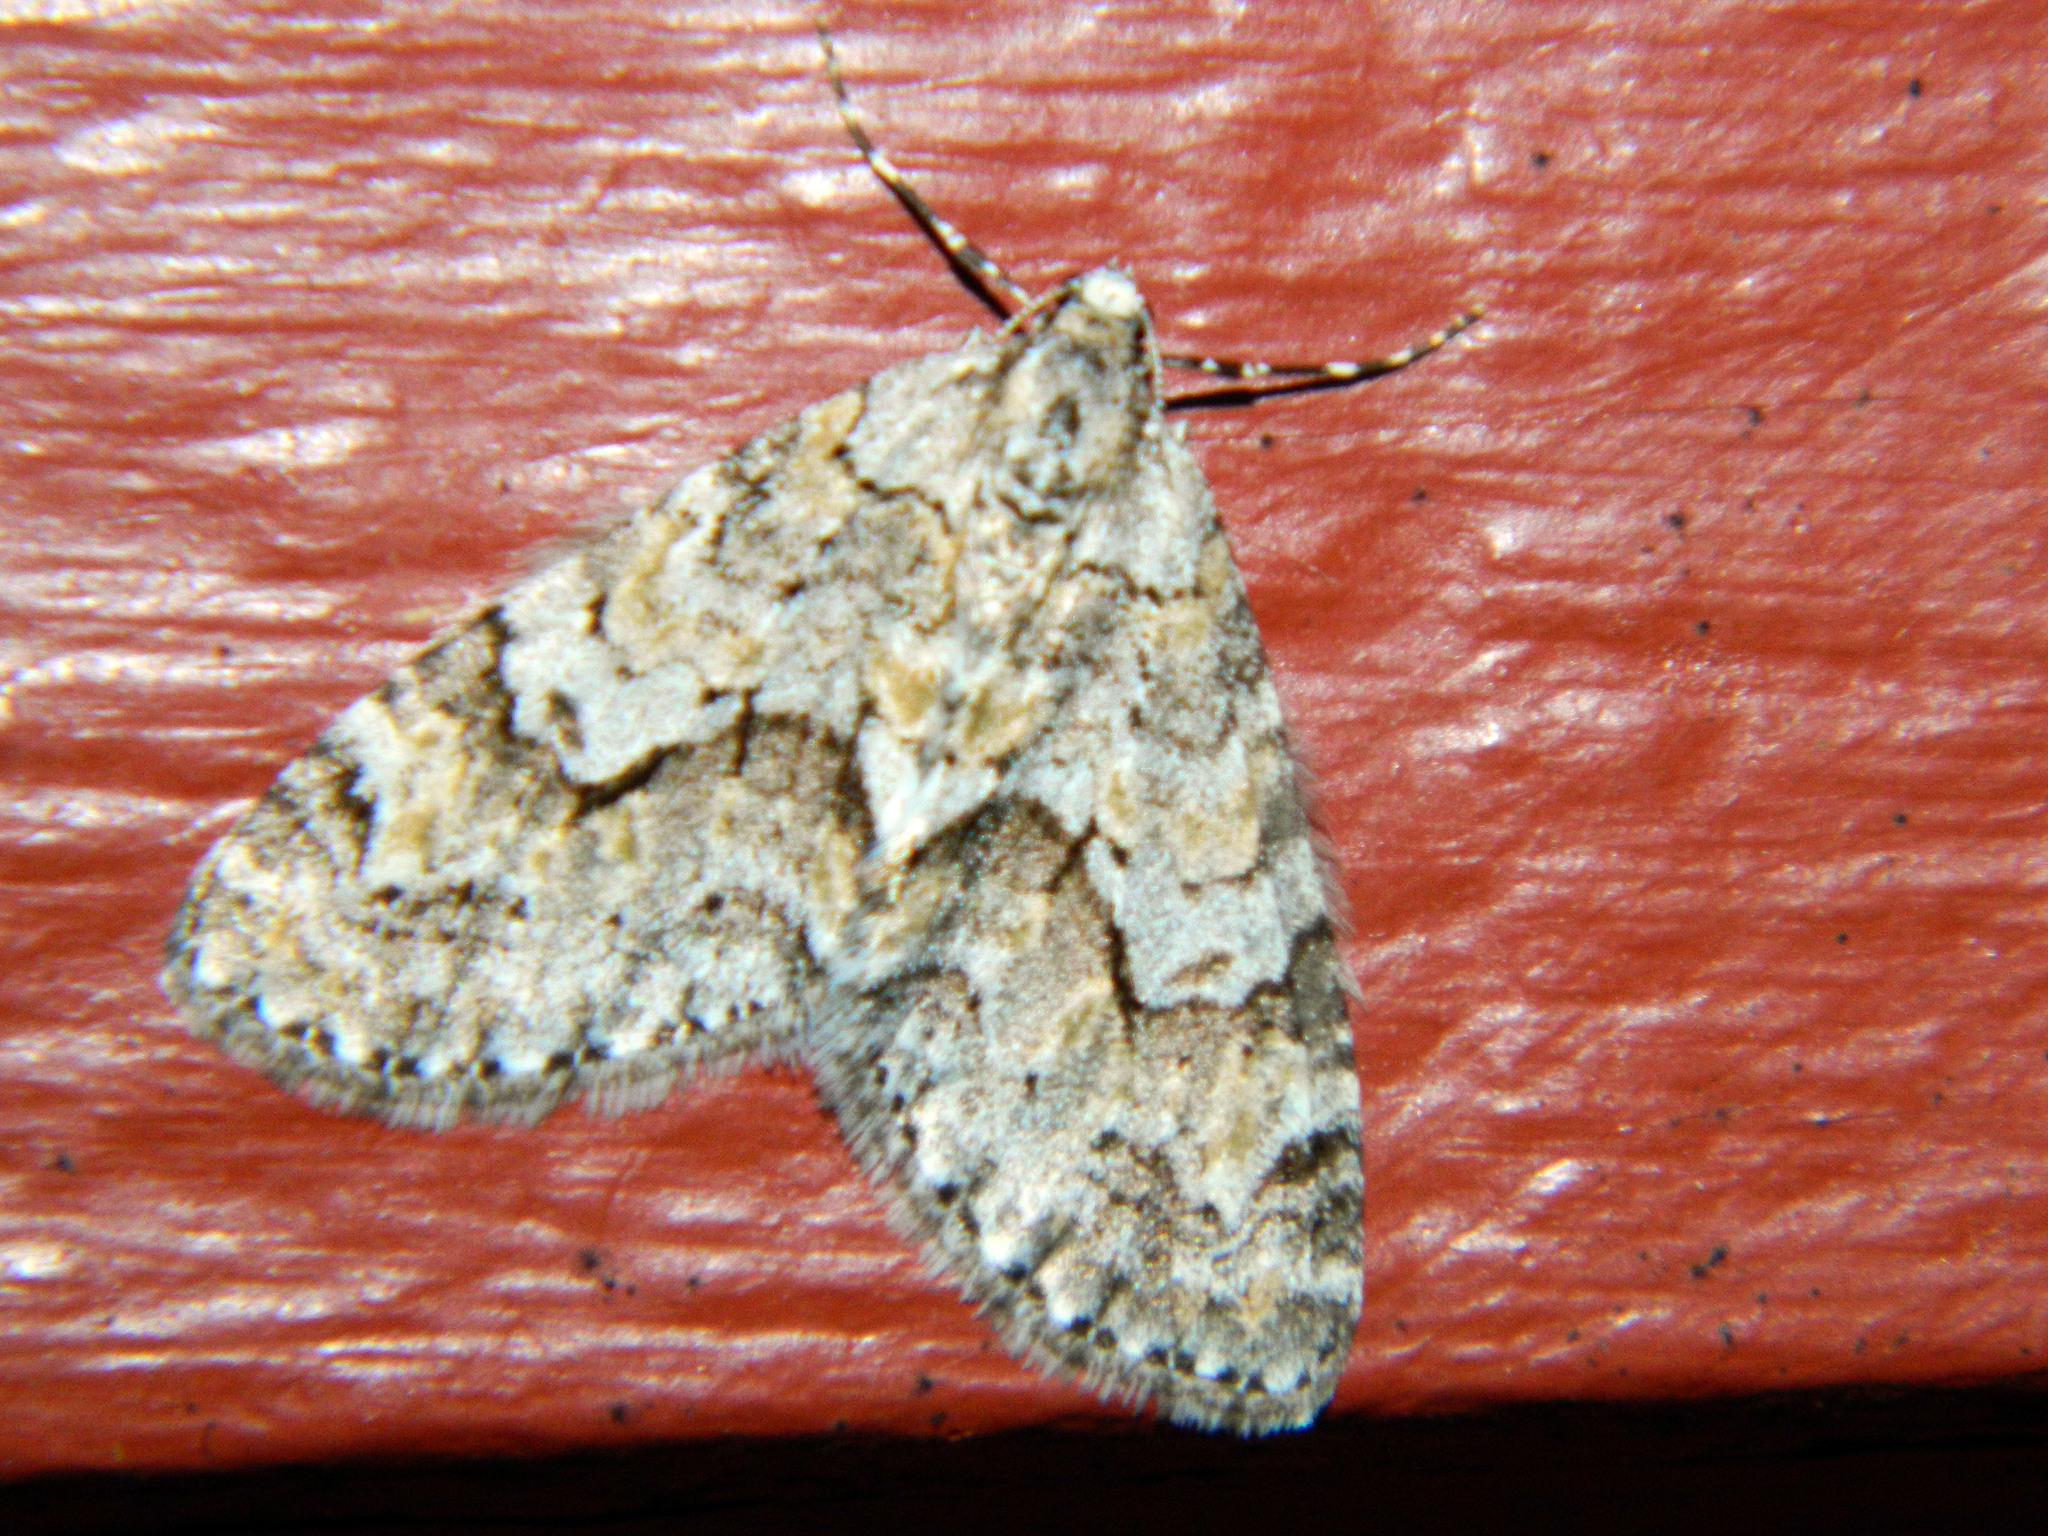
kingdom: Animalia
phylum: Arthropoda
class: Insecta
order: Lepidoptera
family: Geometridae
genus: Cladara
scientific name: Cladara limitaria
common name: Mottled gray carpet
